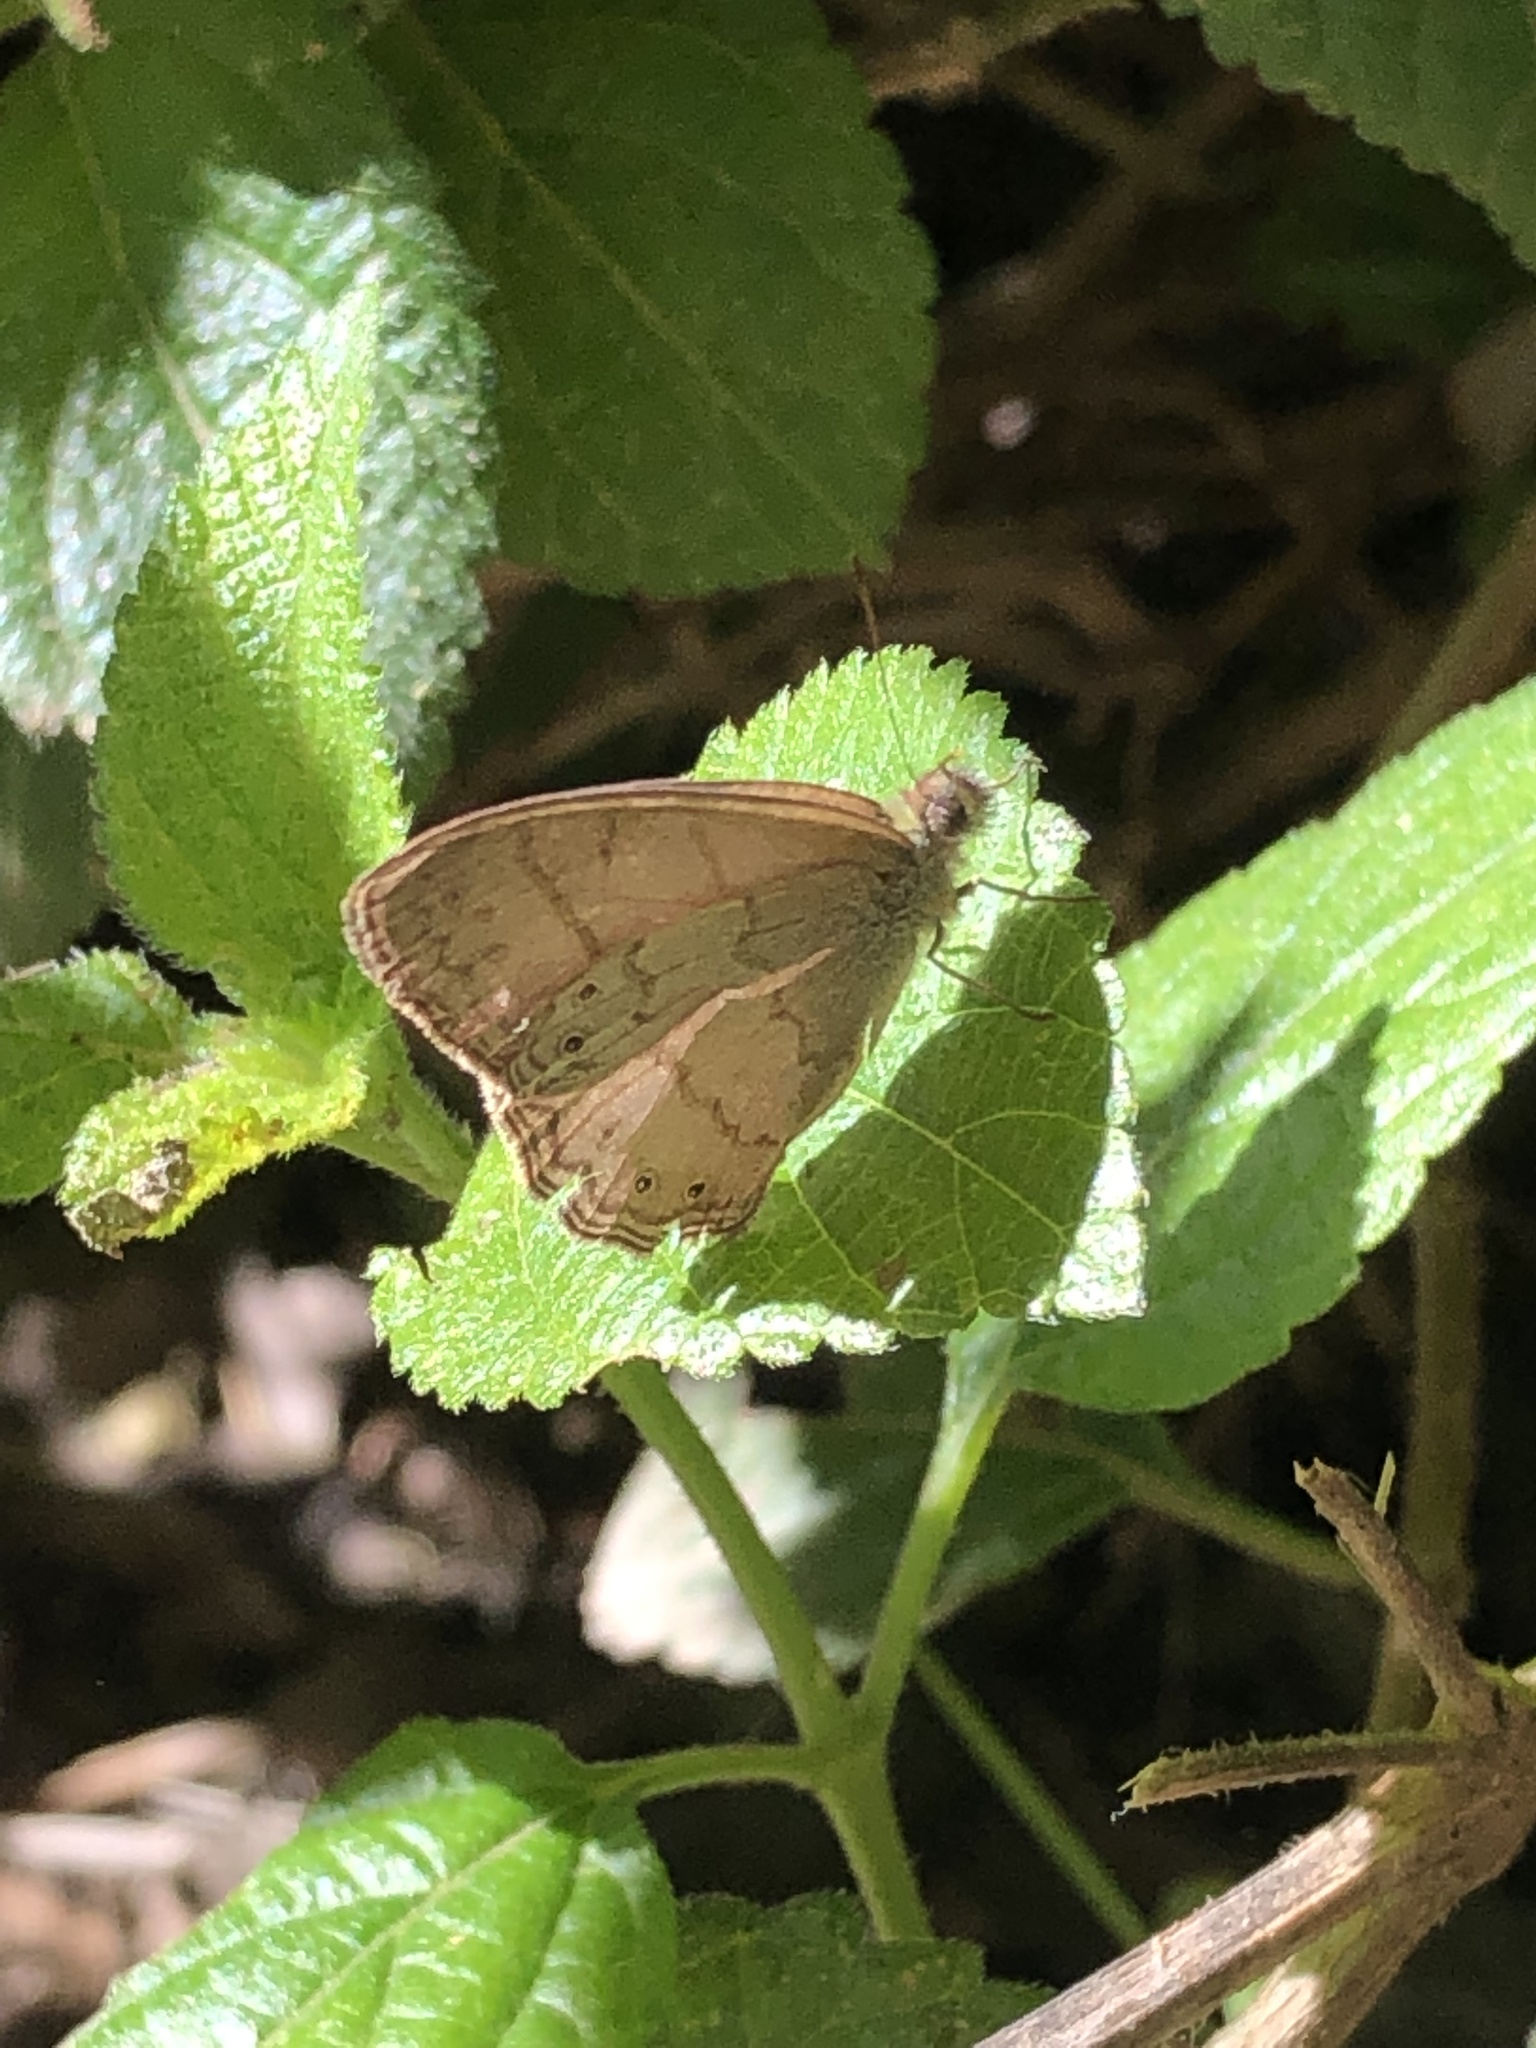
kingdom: Animalia
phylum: Arthropoda
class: Insecta
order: Lepidoptera
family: Nymphalidae
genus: Paryphthimoides
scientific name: Paryphthimoides poltys
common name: Poltys satyr
